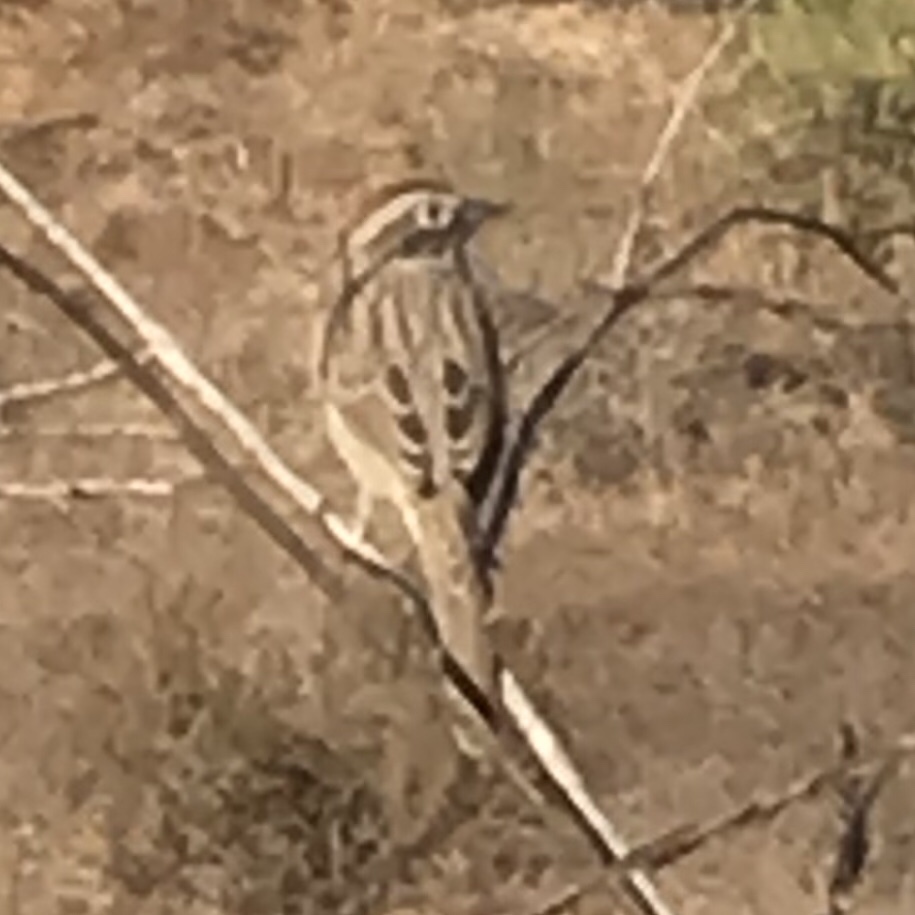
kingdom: Animalia
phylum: Chordata
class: Aves
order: Passeriformes
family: Passerellidae
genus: Aimophila
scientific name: Aimophila ruficeps
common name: Rufous-crowned sparrow
